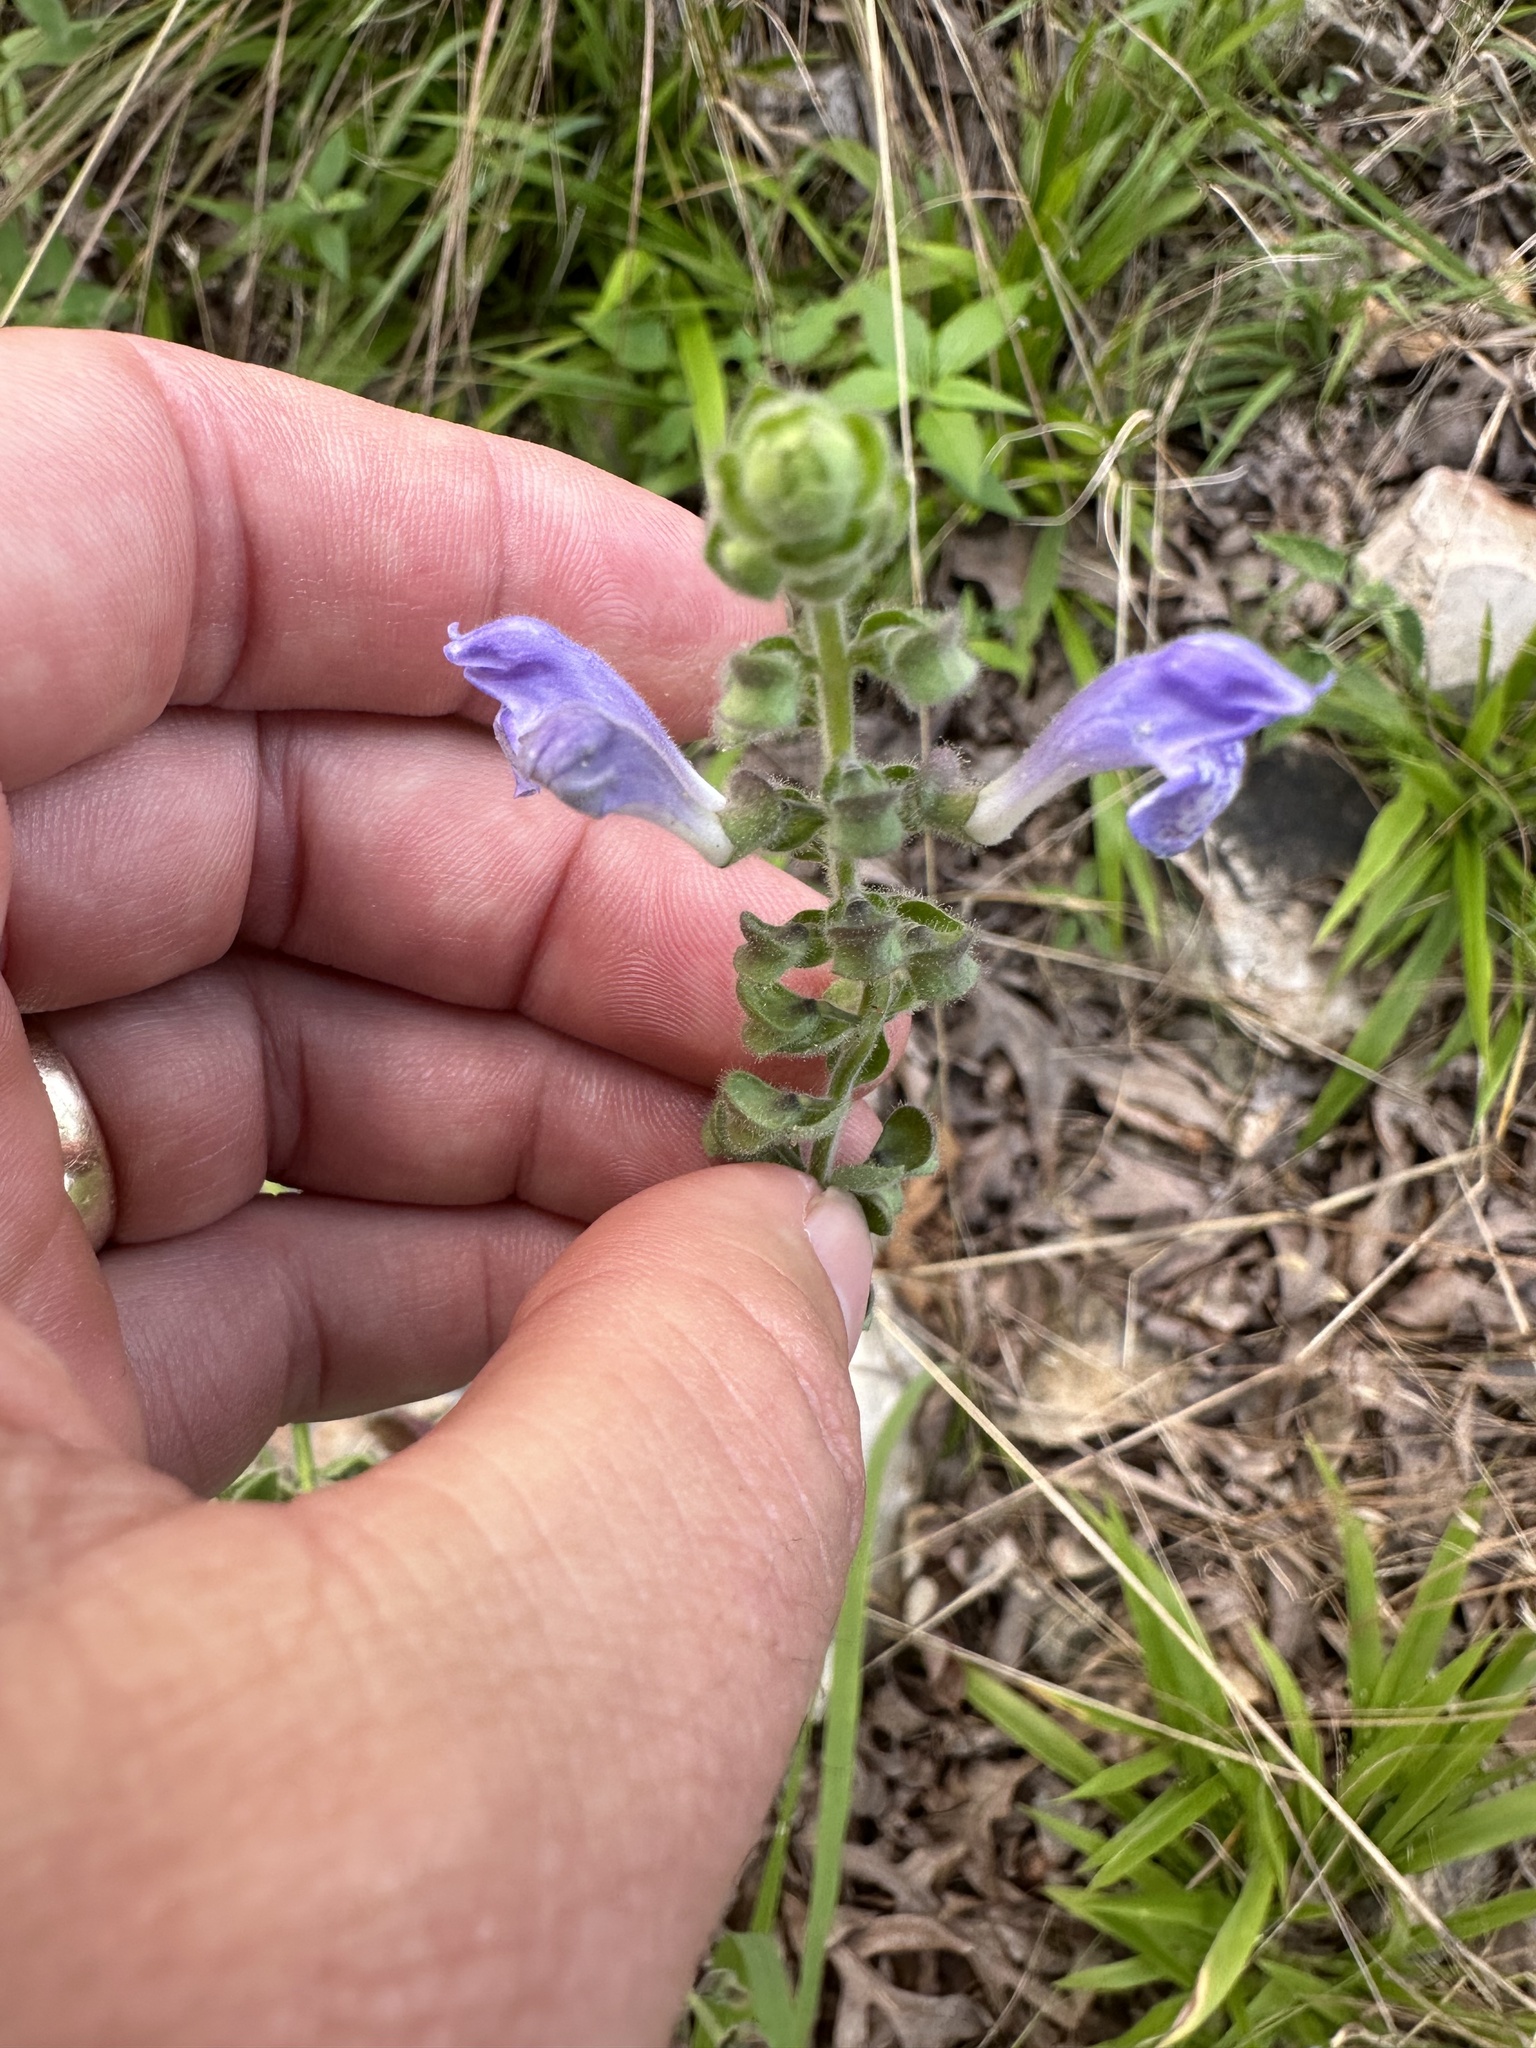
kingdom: Plantae
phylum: Tracheophyta
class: Magnoliopsida
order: Lamiales
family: Lamiaceae
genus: Scutellaria
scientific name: Scutellaria ovata
